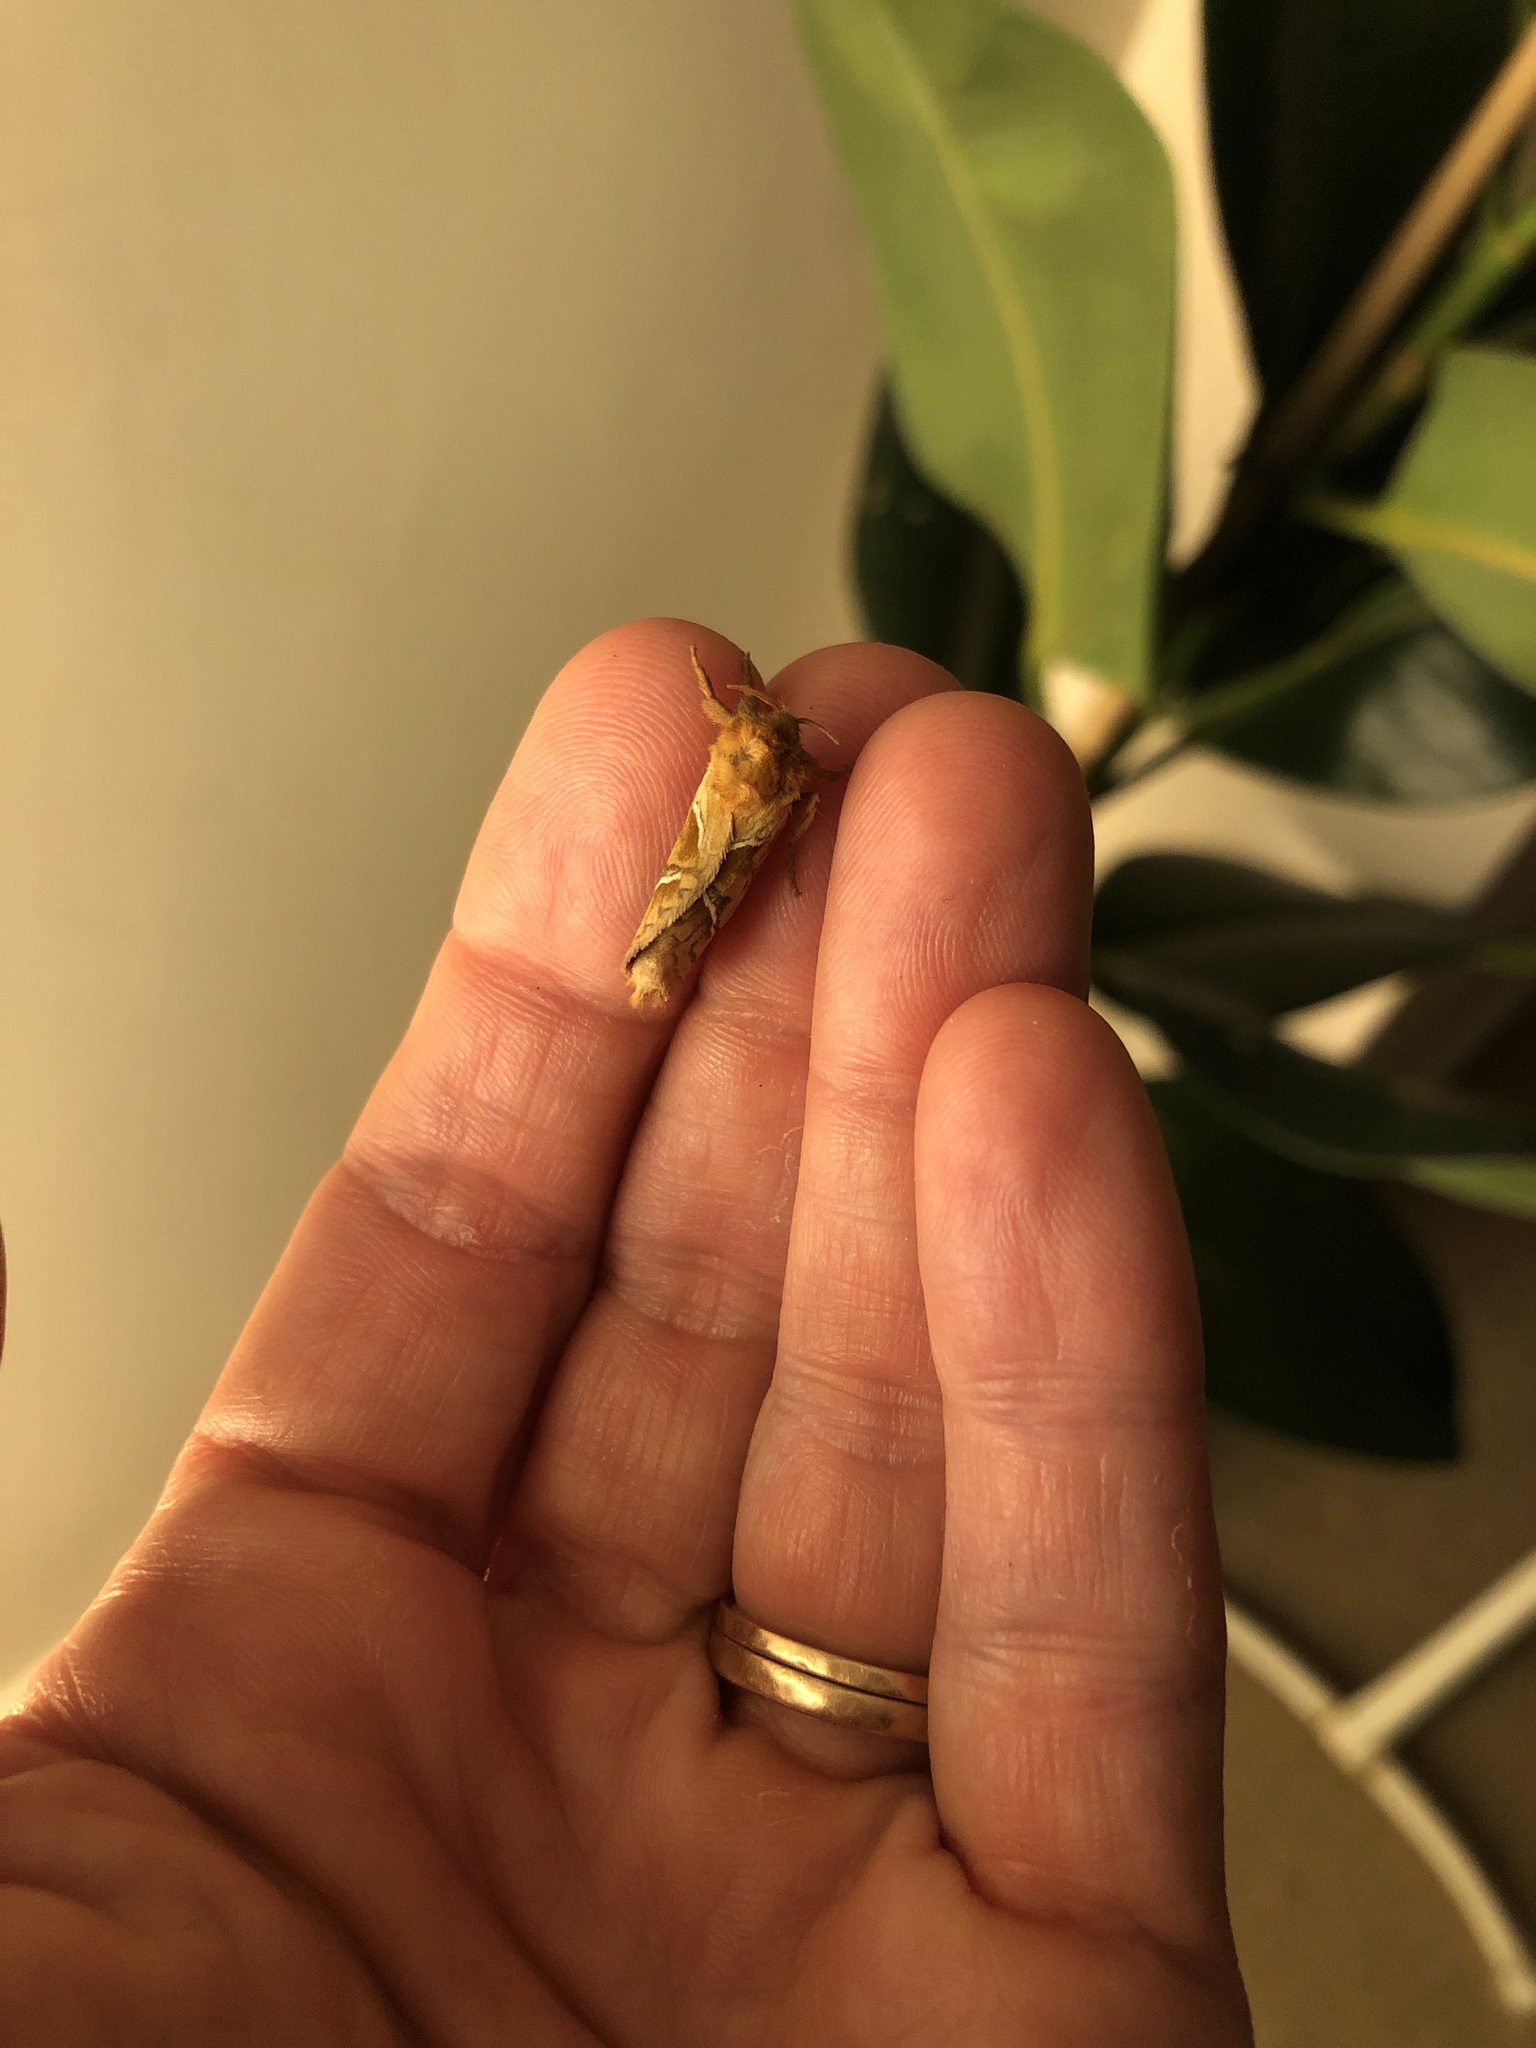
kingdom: Animalia
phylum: Arthropoda
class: Insecta
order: Lepidoptera
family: Hepialidae
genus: Triodia
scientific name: Triodia sylvina
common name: Orange swift
